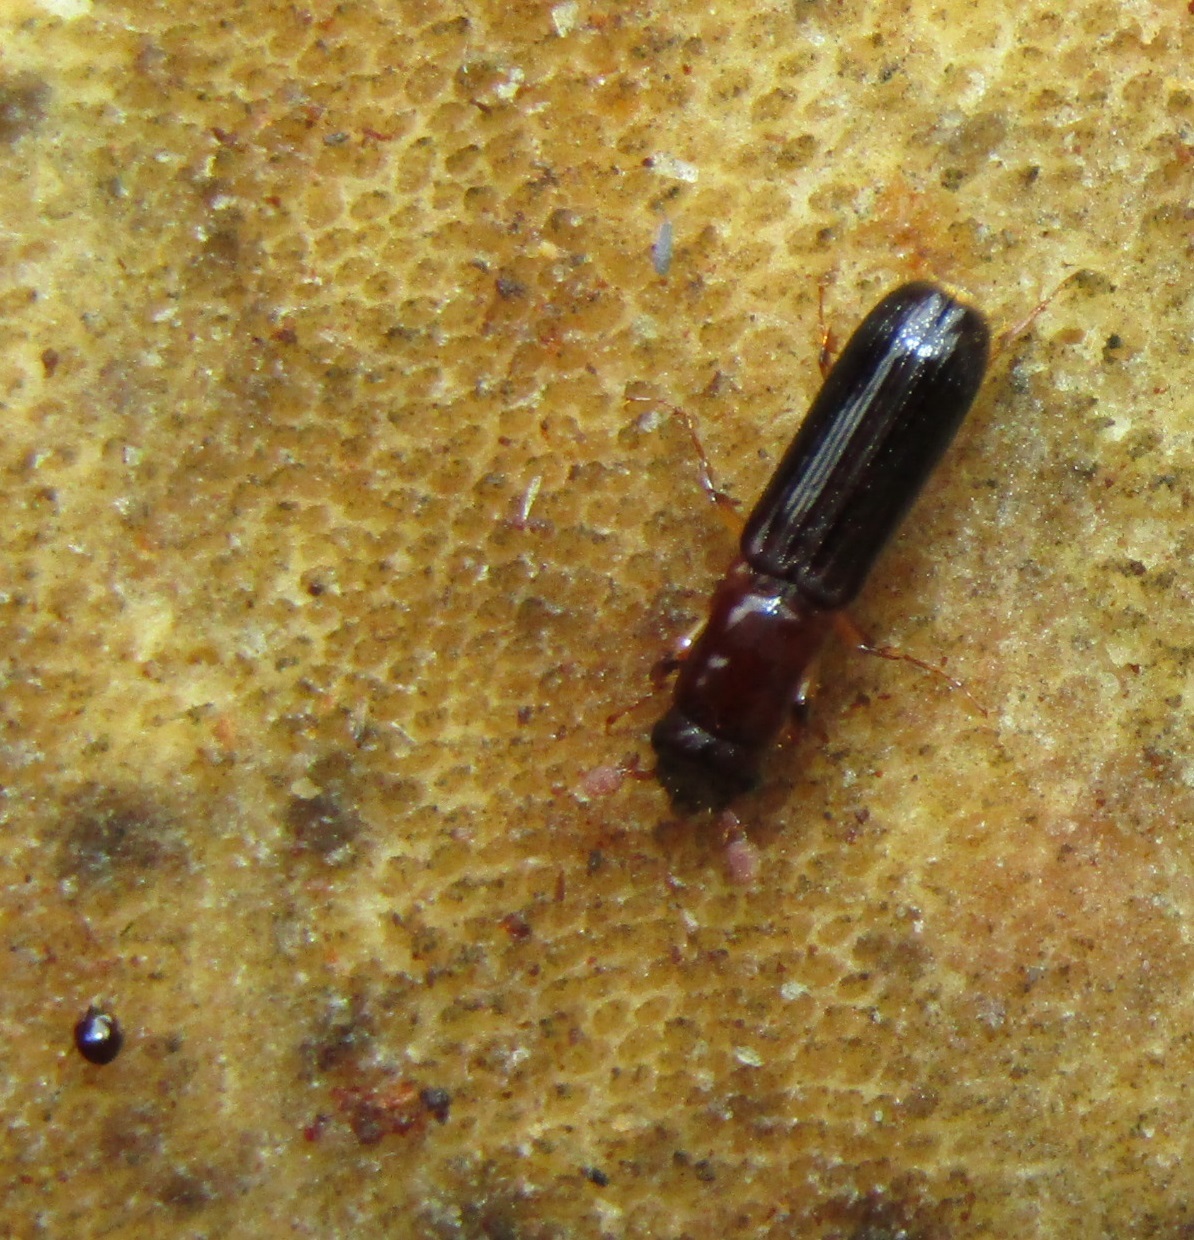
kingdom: Animalia
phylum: Arthropoda
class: Insecta
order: Coleoptera
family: Curculionidae
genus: Platypus
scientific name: Platypus apicalis
